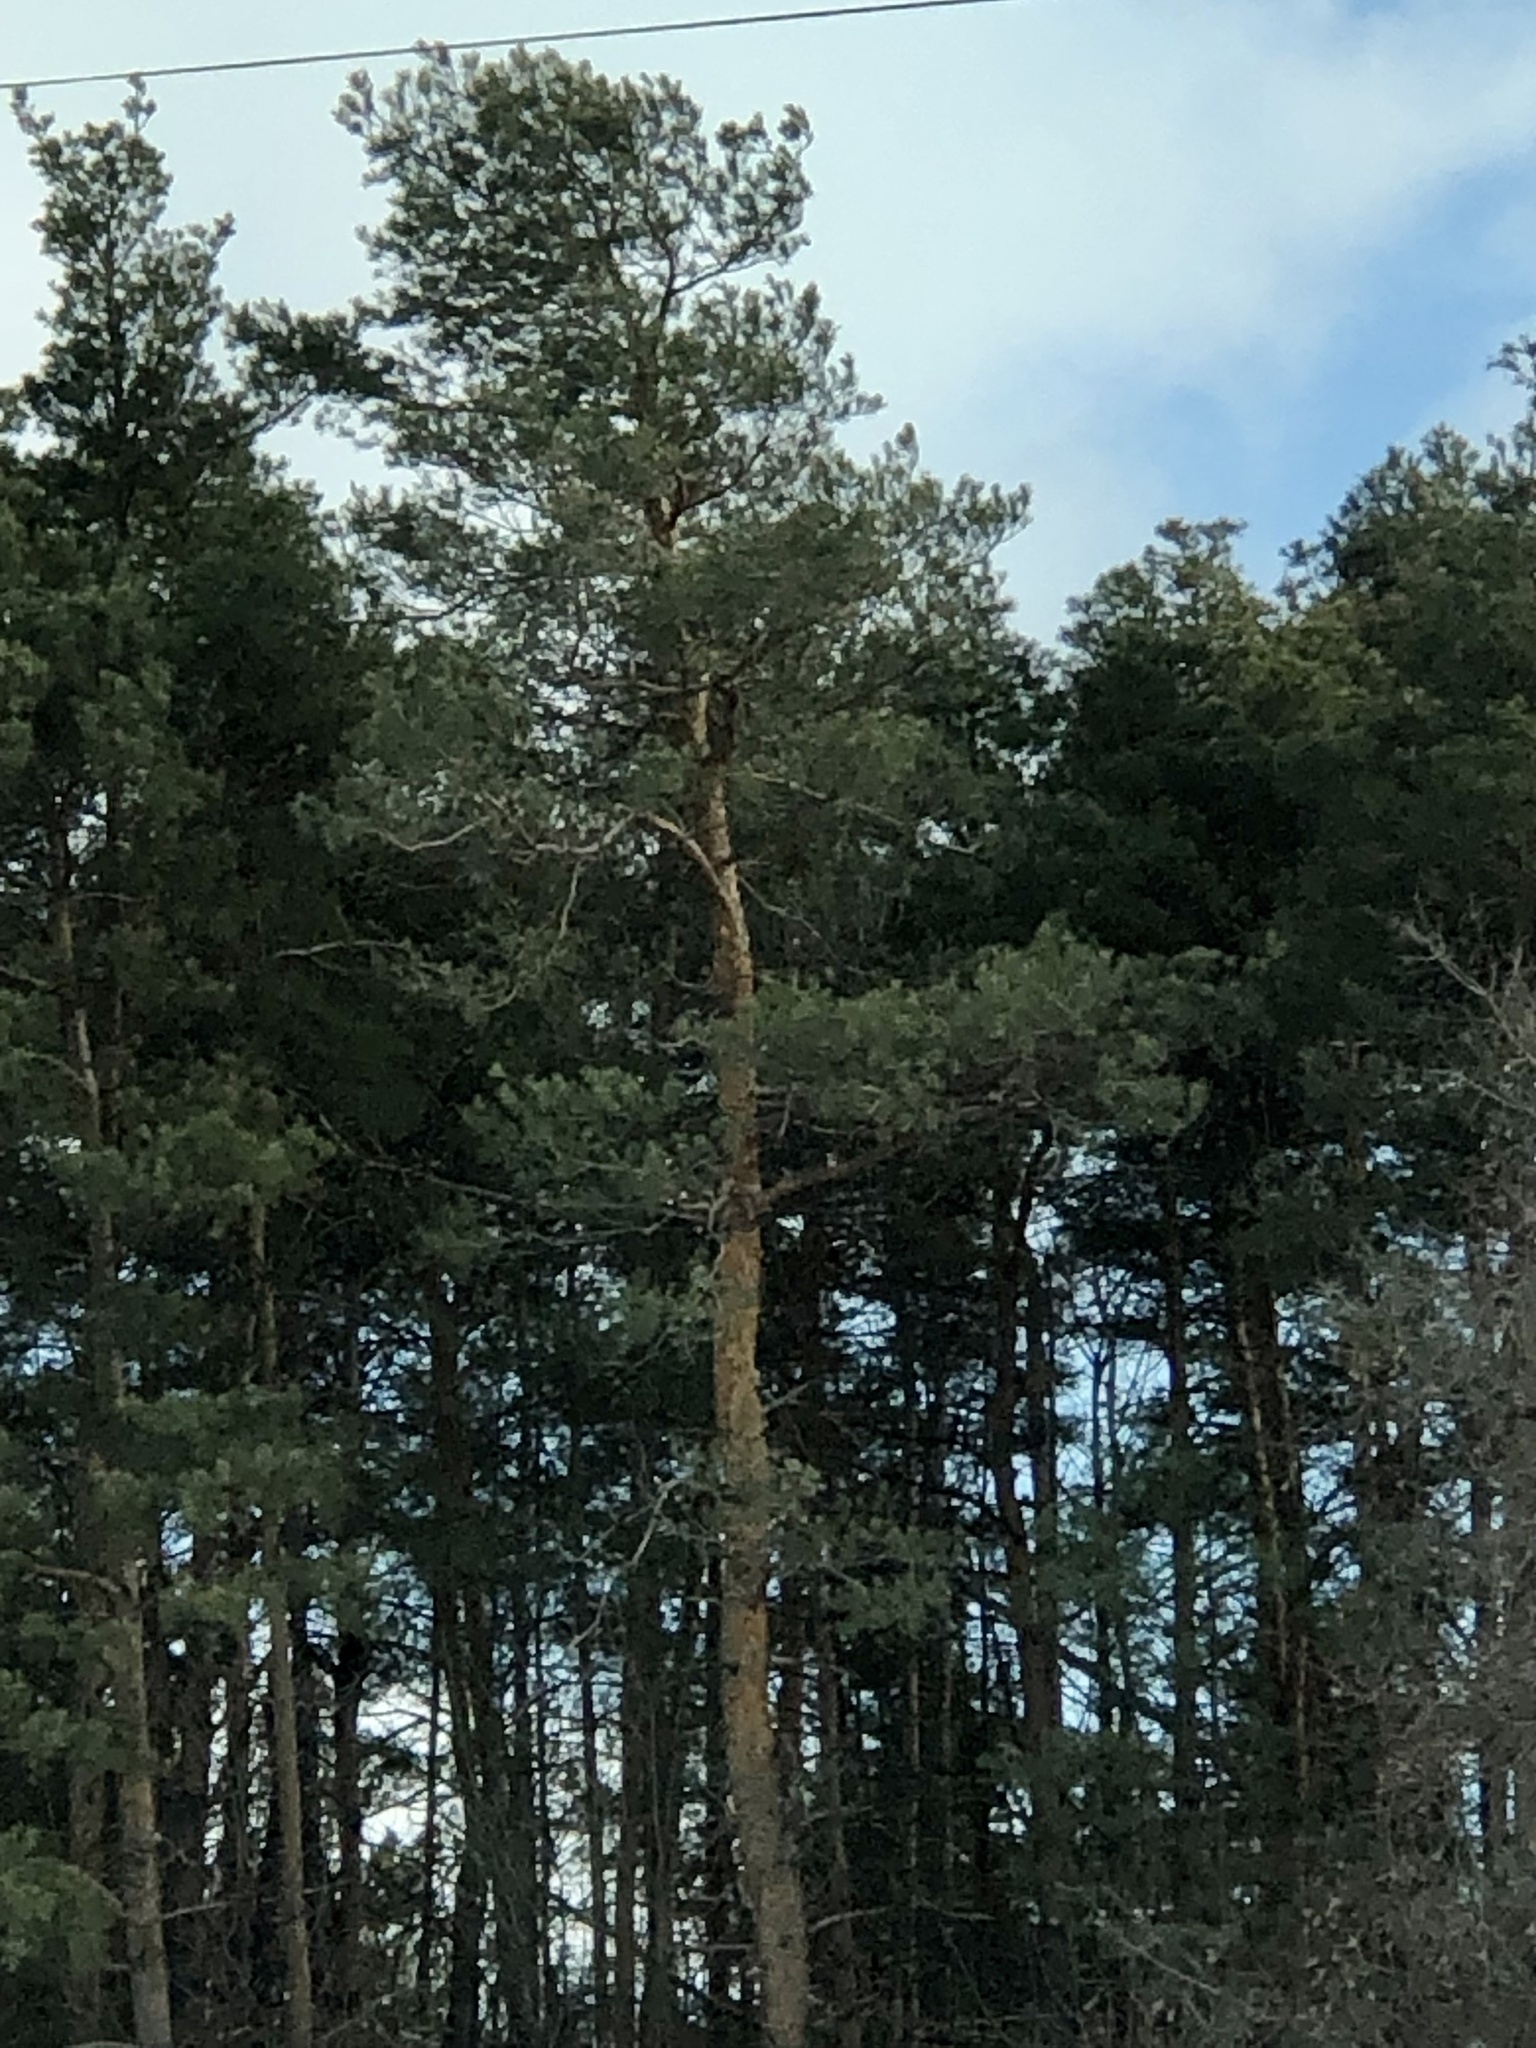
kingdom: Plantae
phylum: Tracheophyta
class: Pinopsida
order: Pinales
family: Pinaceae
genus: Pinus
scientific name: Pinus sylvestris
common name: Scots pine
